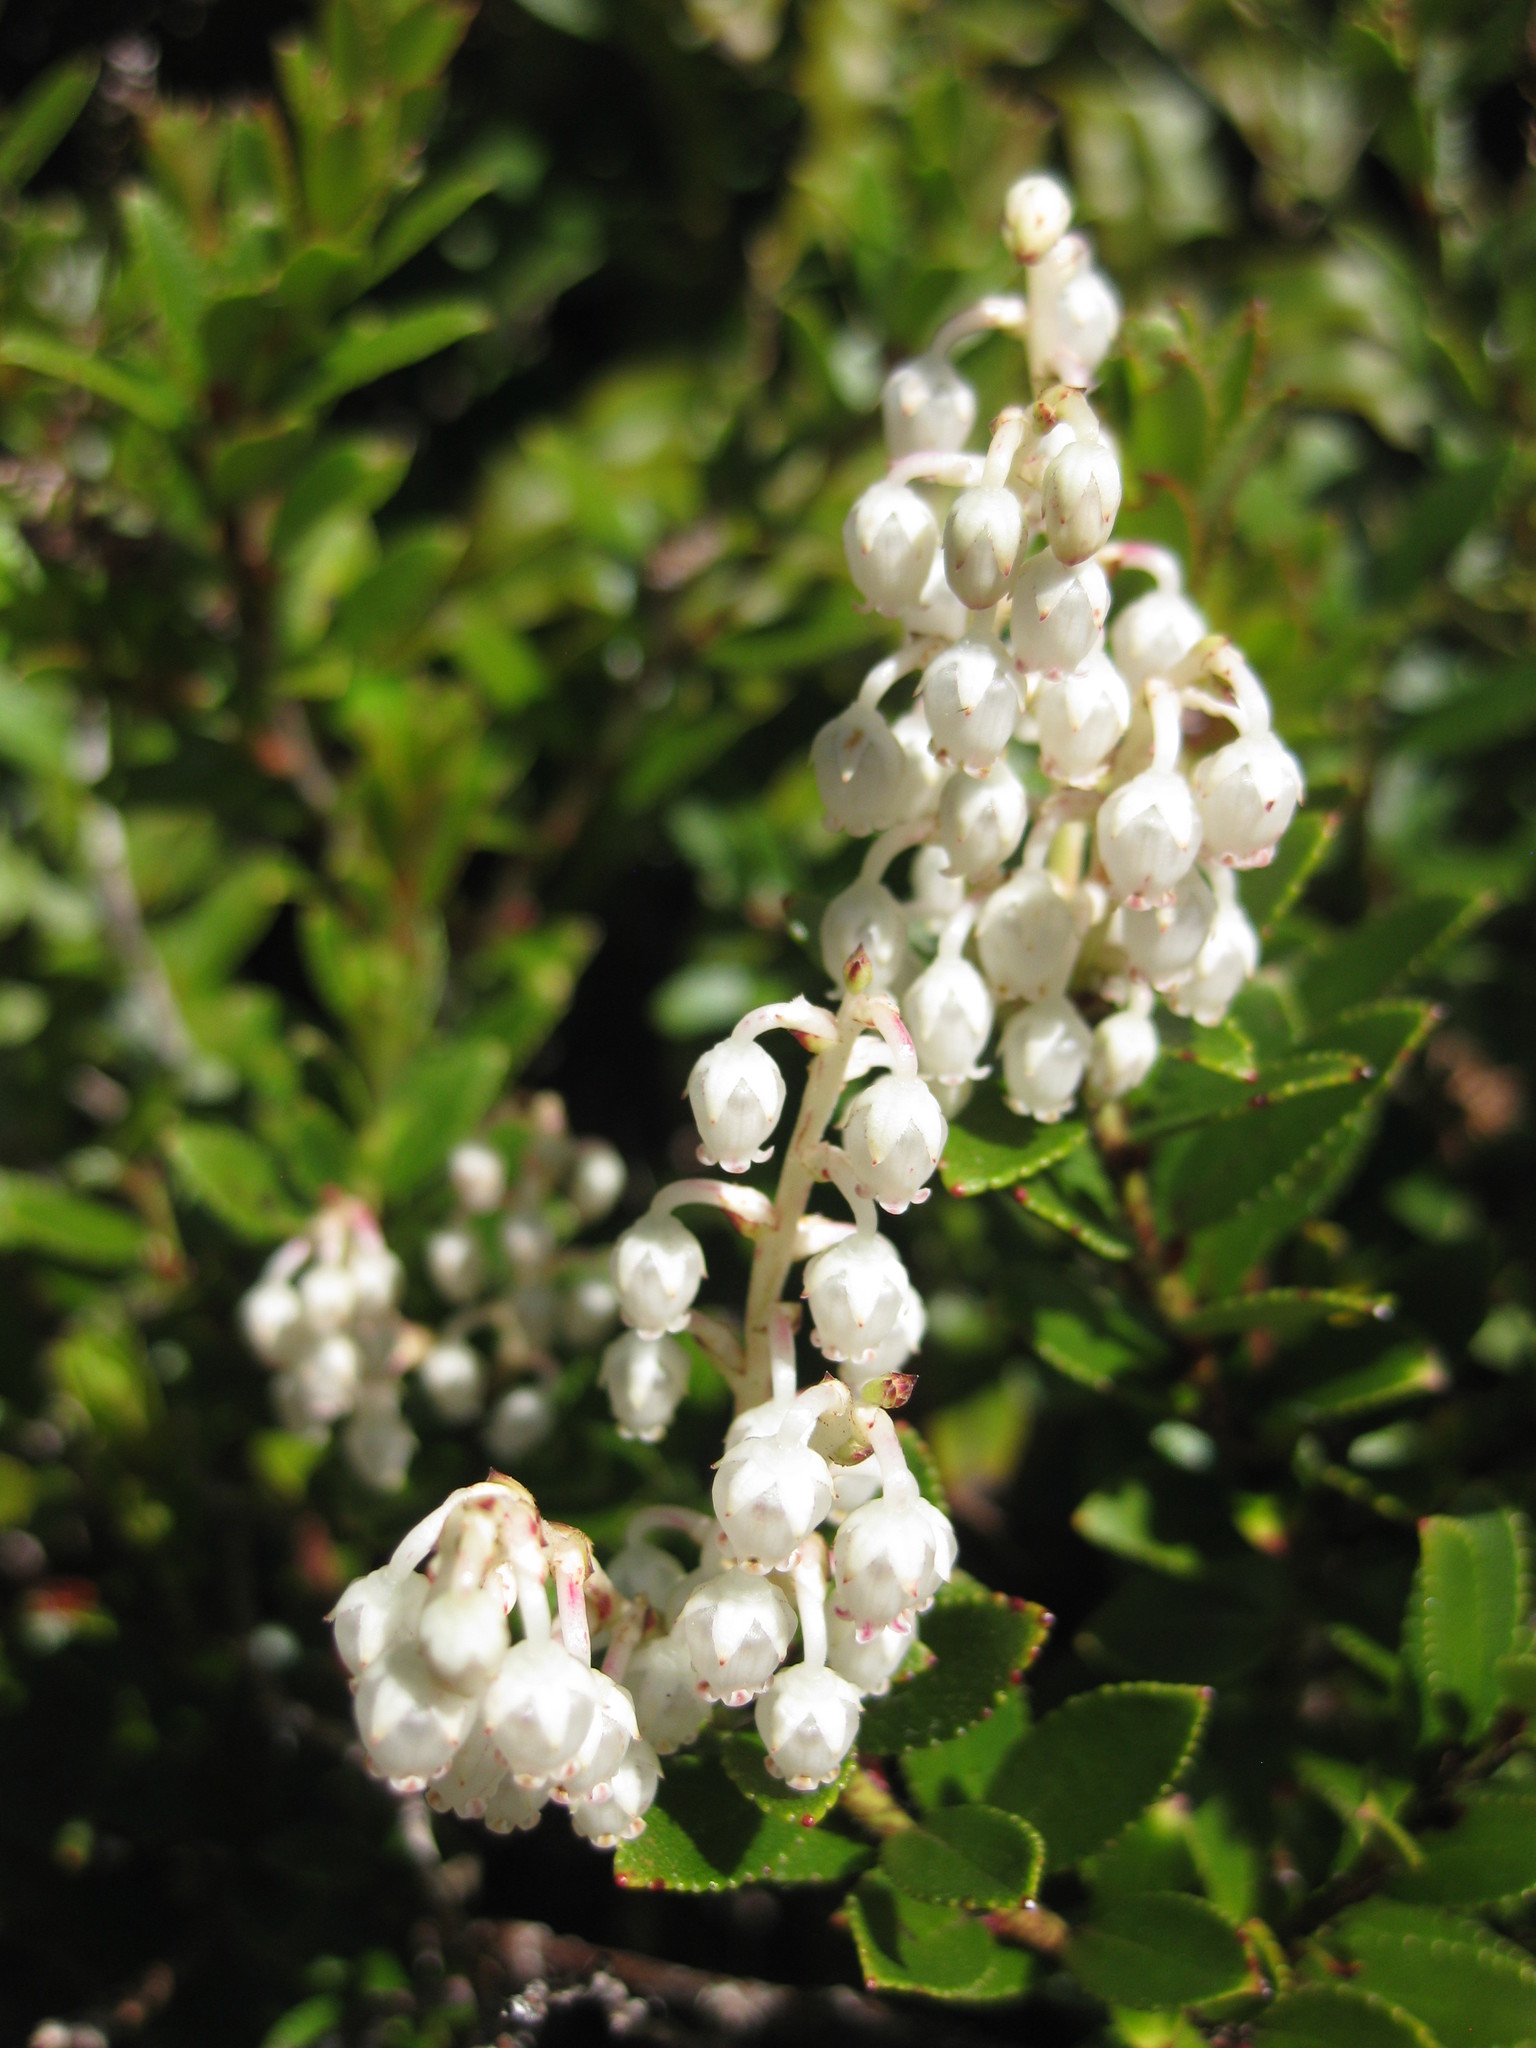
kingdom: Plantae
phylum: Tracheophyta
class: Magnoliopsida
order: Ericales
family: Ericaceae
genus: Gaultheria
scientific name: Gaultheria crassa
